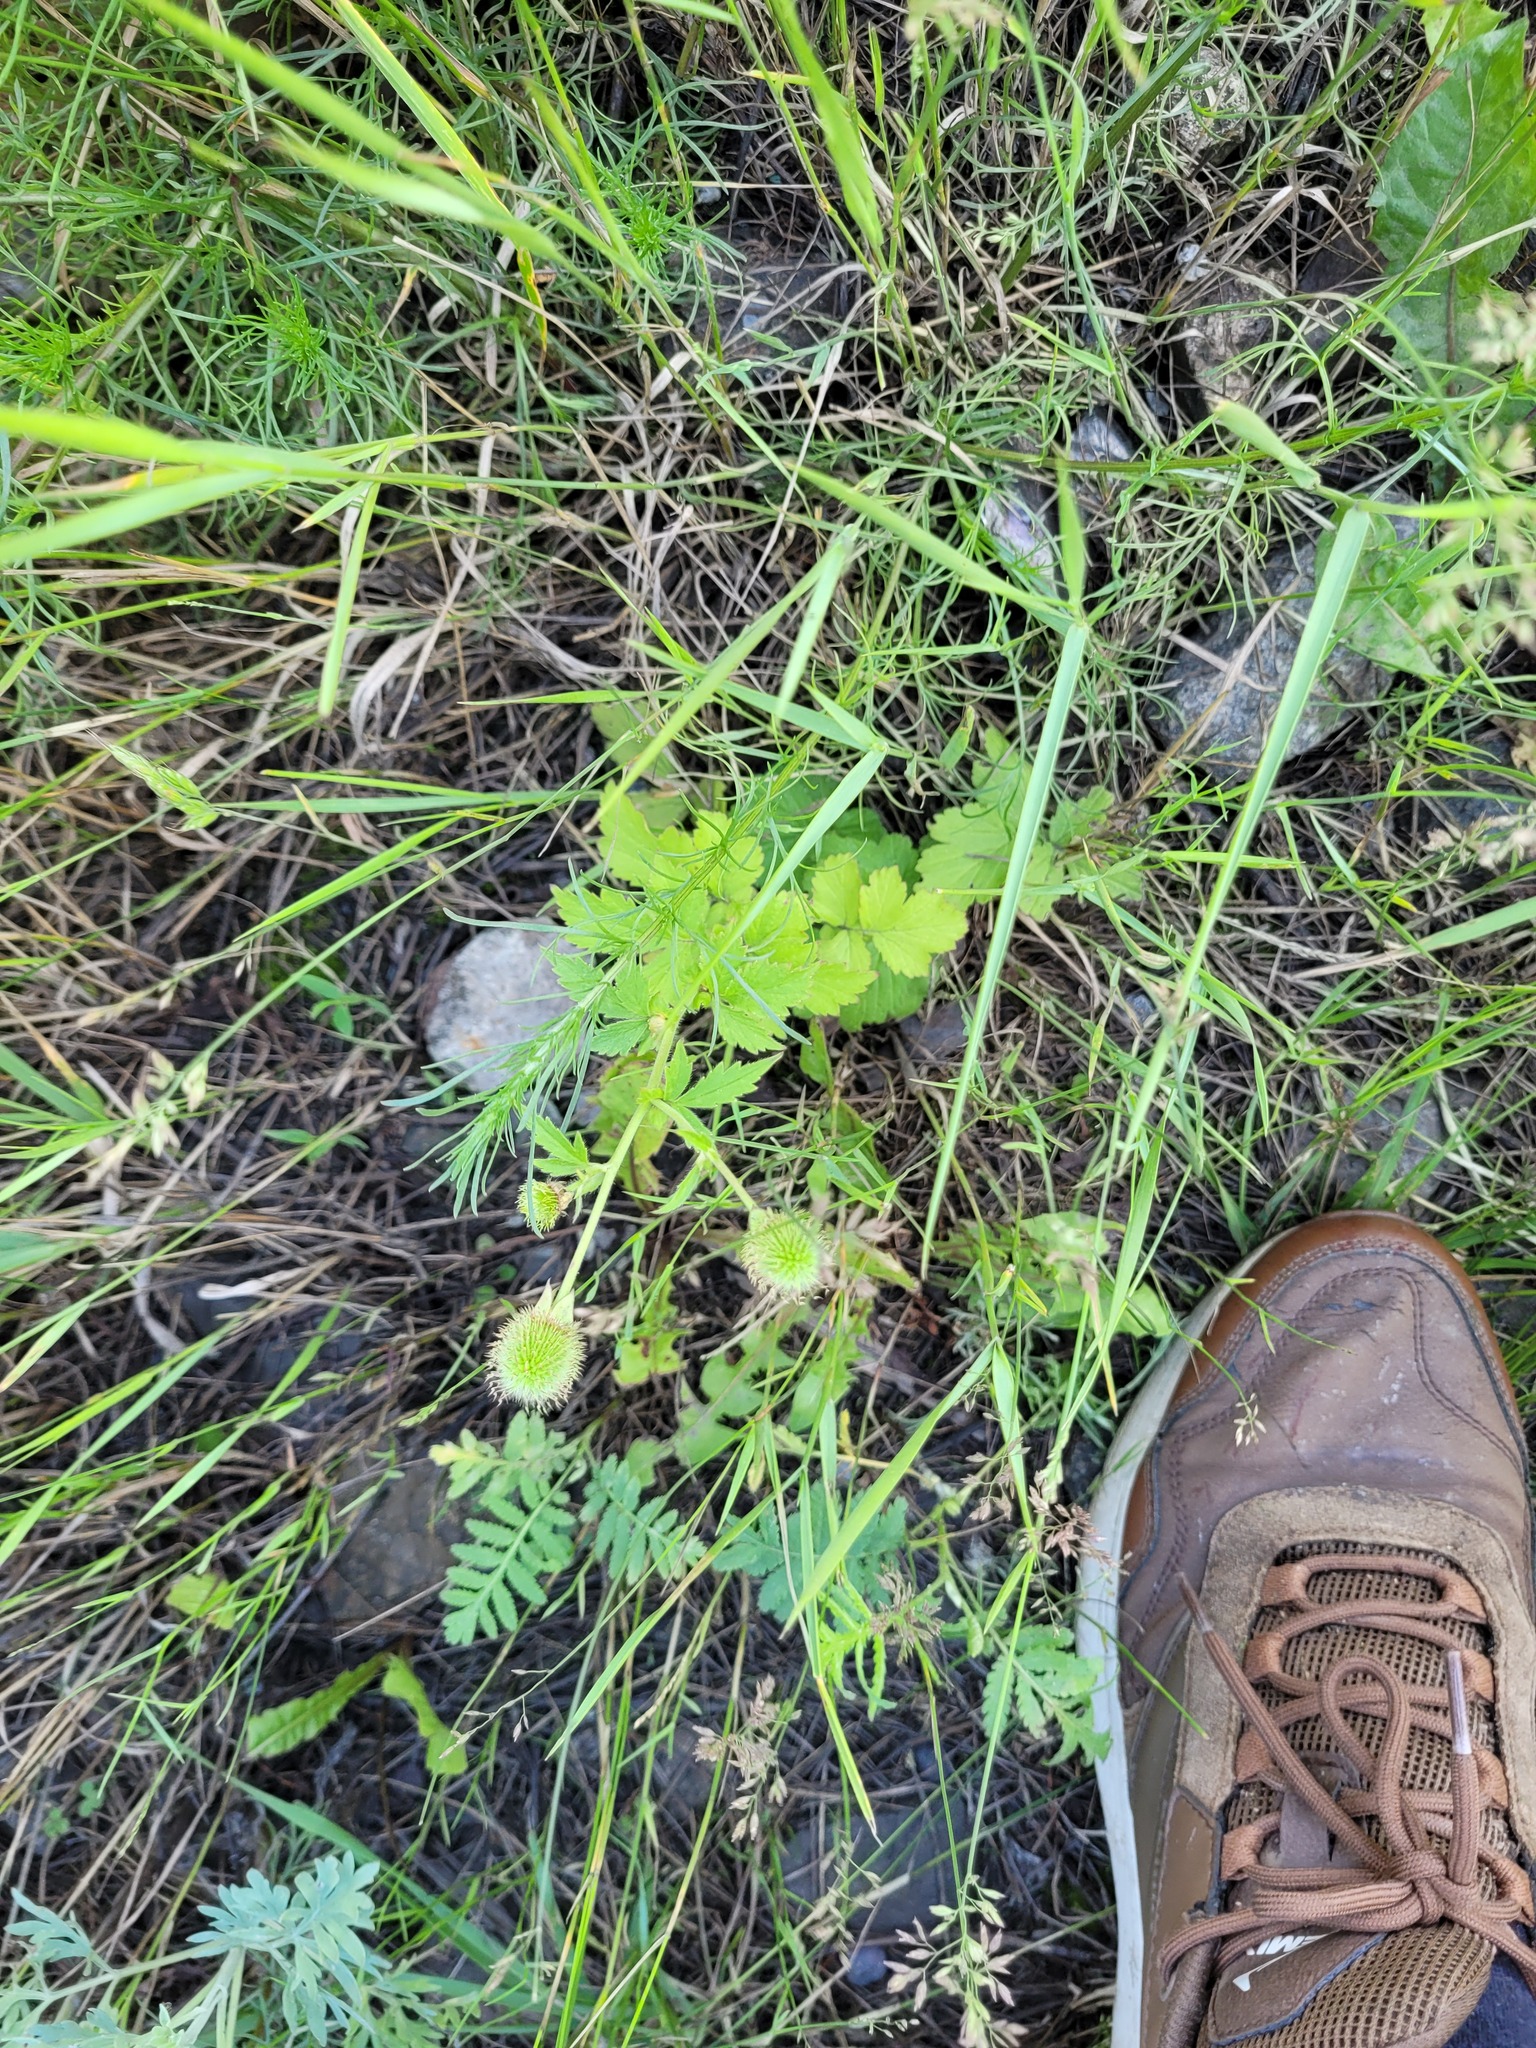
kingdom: Plantae
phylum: Tracheophyta
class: Magnoliopsida
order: Rosales
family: Rosaceae
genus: Geum
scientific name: Geum aleppicum
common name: Yellow avens
